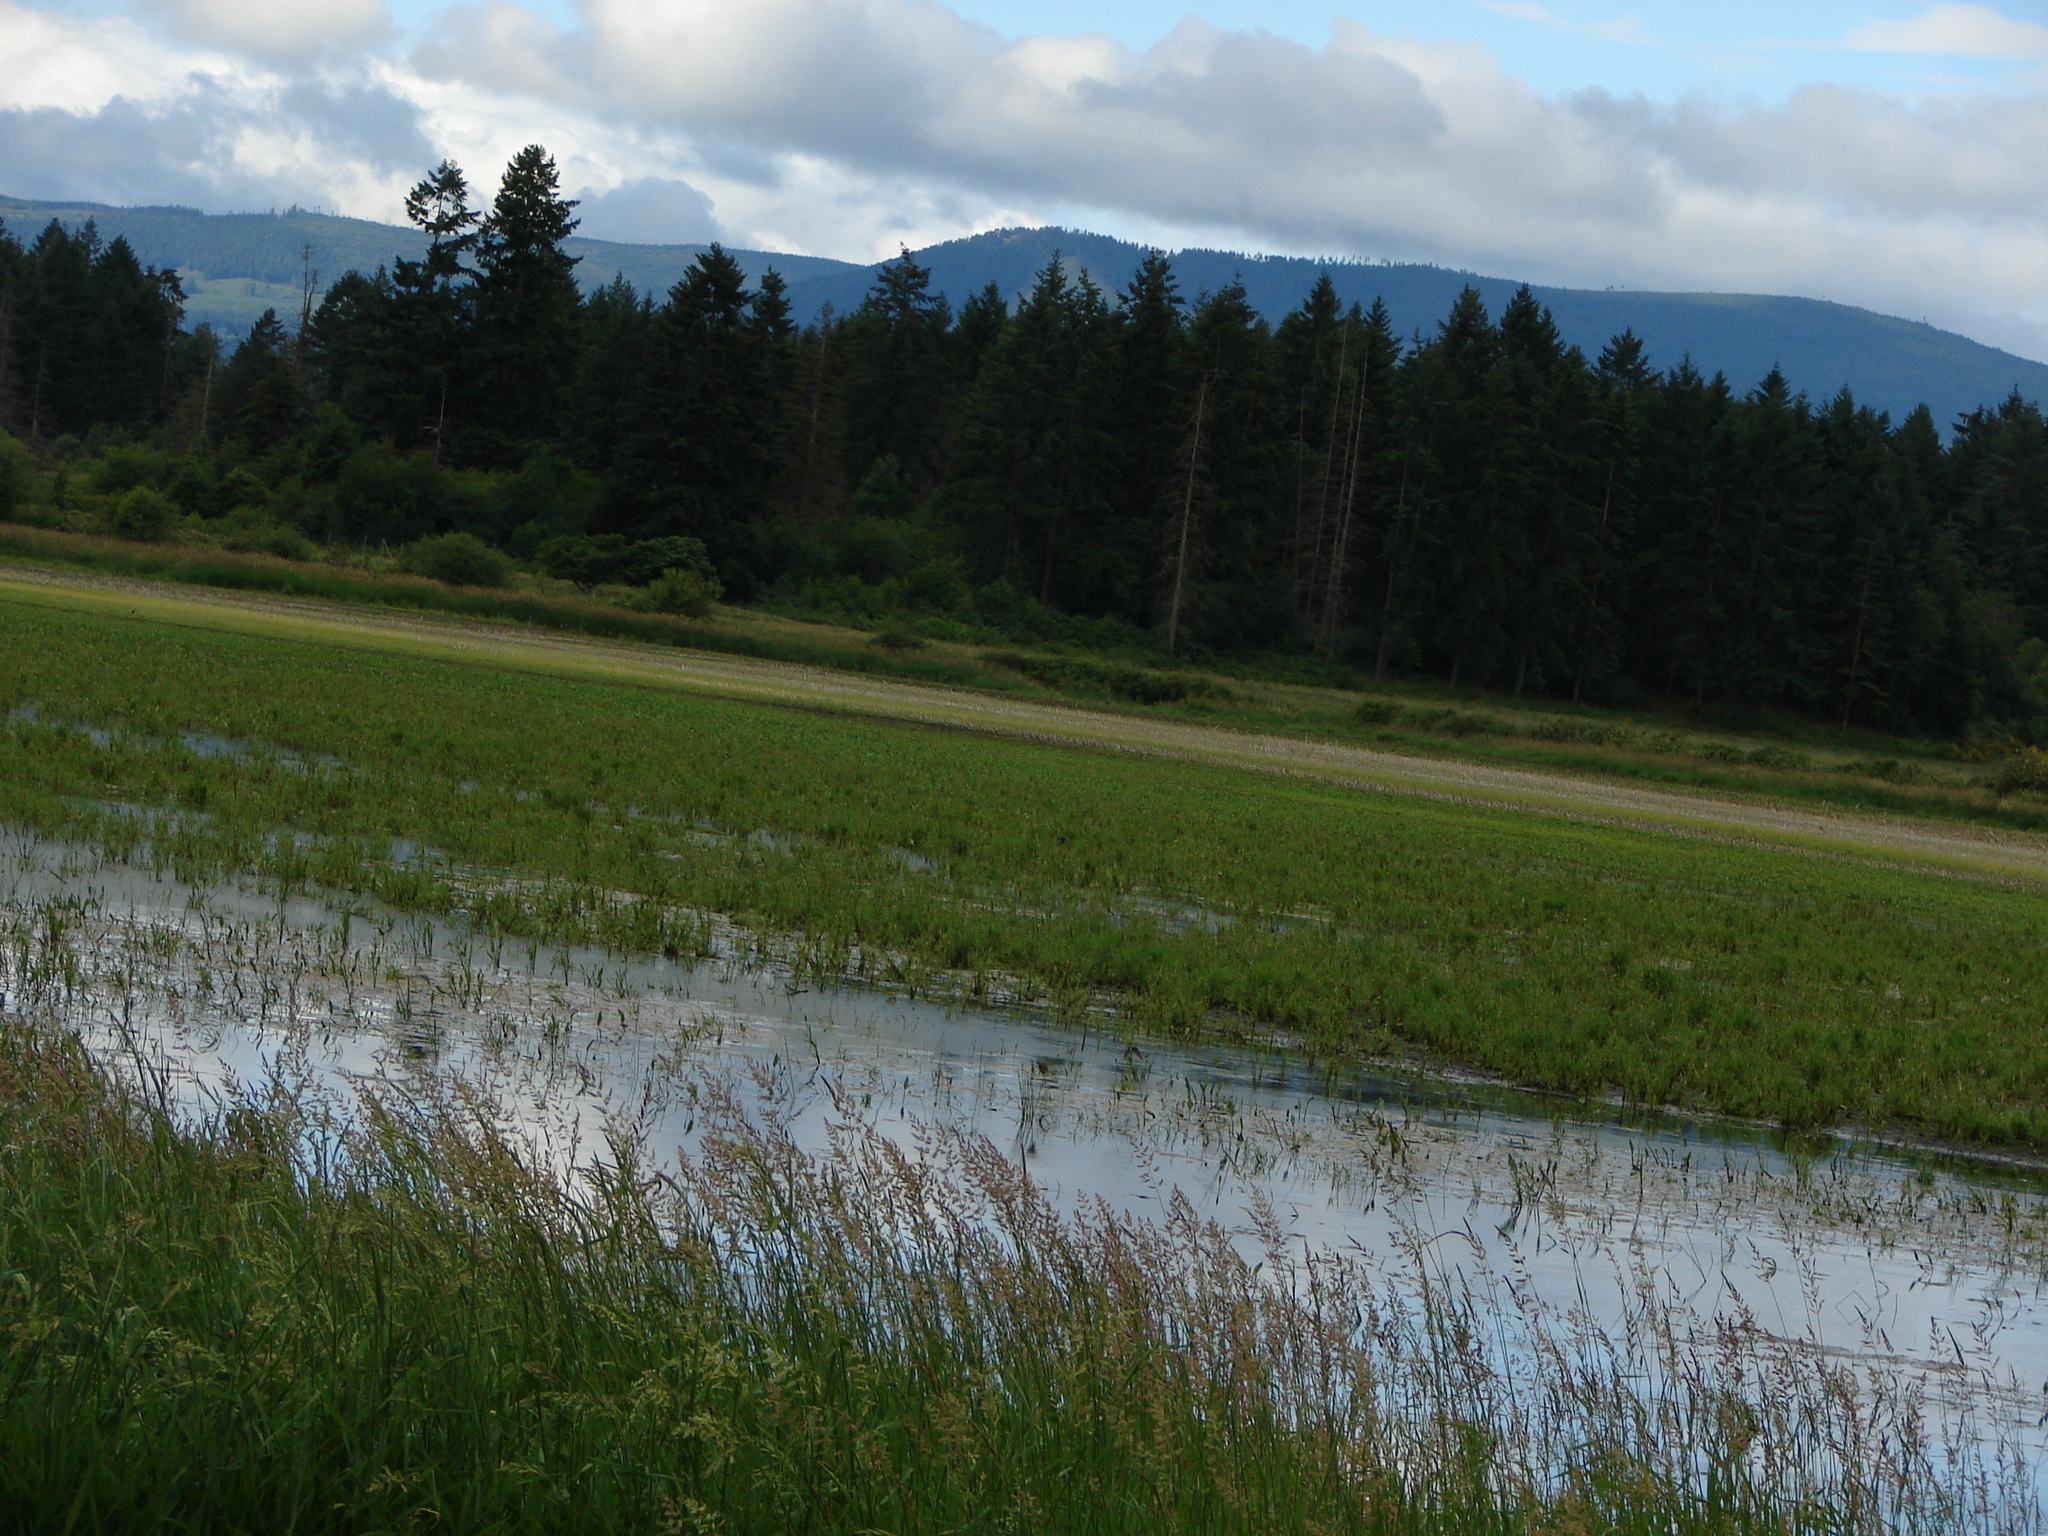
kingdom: Plantae
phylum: Tracheophyta
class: Pinopsida
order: Pinales
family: Pinaceae
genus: Pseudotsuga
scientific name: Pseudotsuga menziesii
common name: Douglas fir
